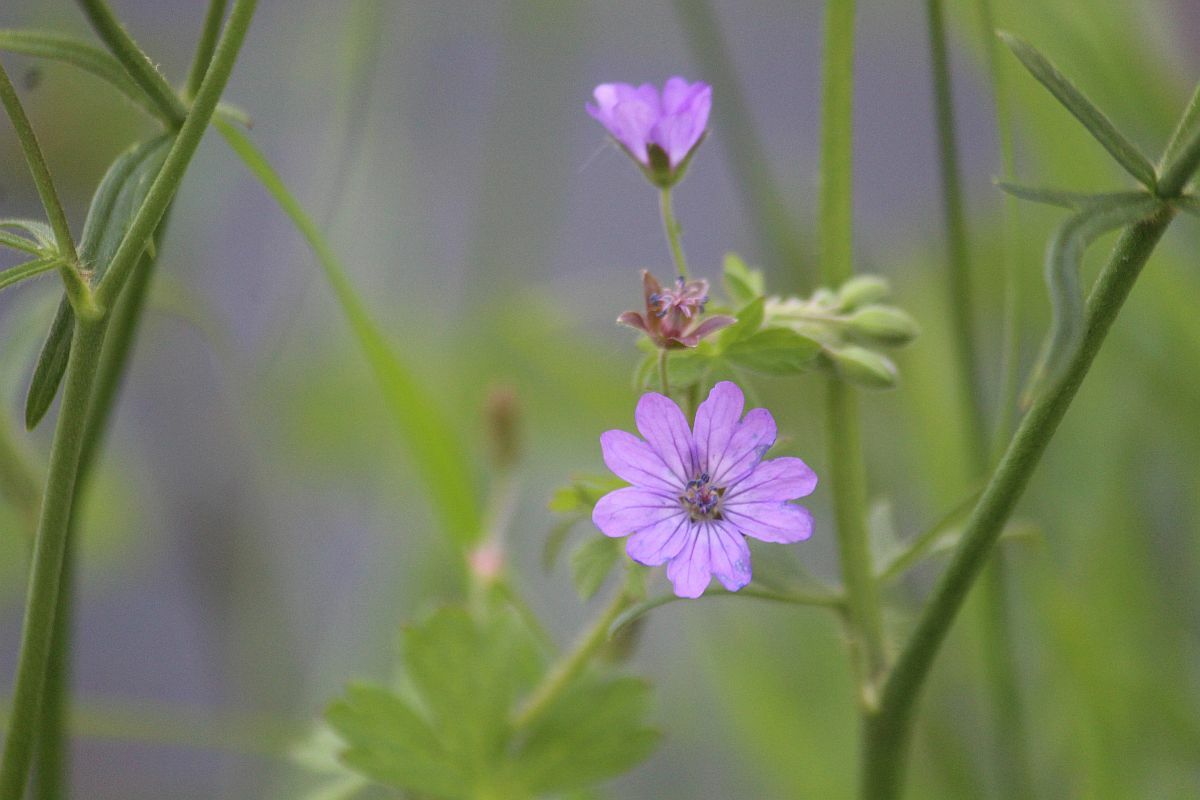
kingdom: Plantae
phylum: Tracheophyta
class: Magnoliopsida
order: Geraniales
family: Geraniaceae
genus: Geranium
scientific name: Geranium pyrenaicum
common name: Hedgerow crane's-bill
